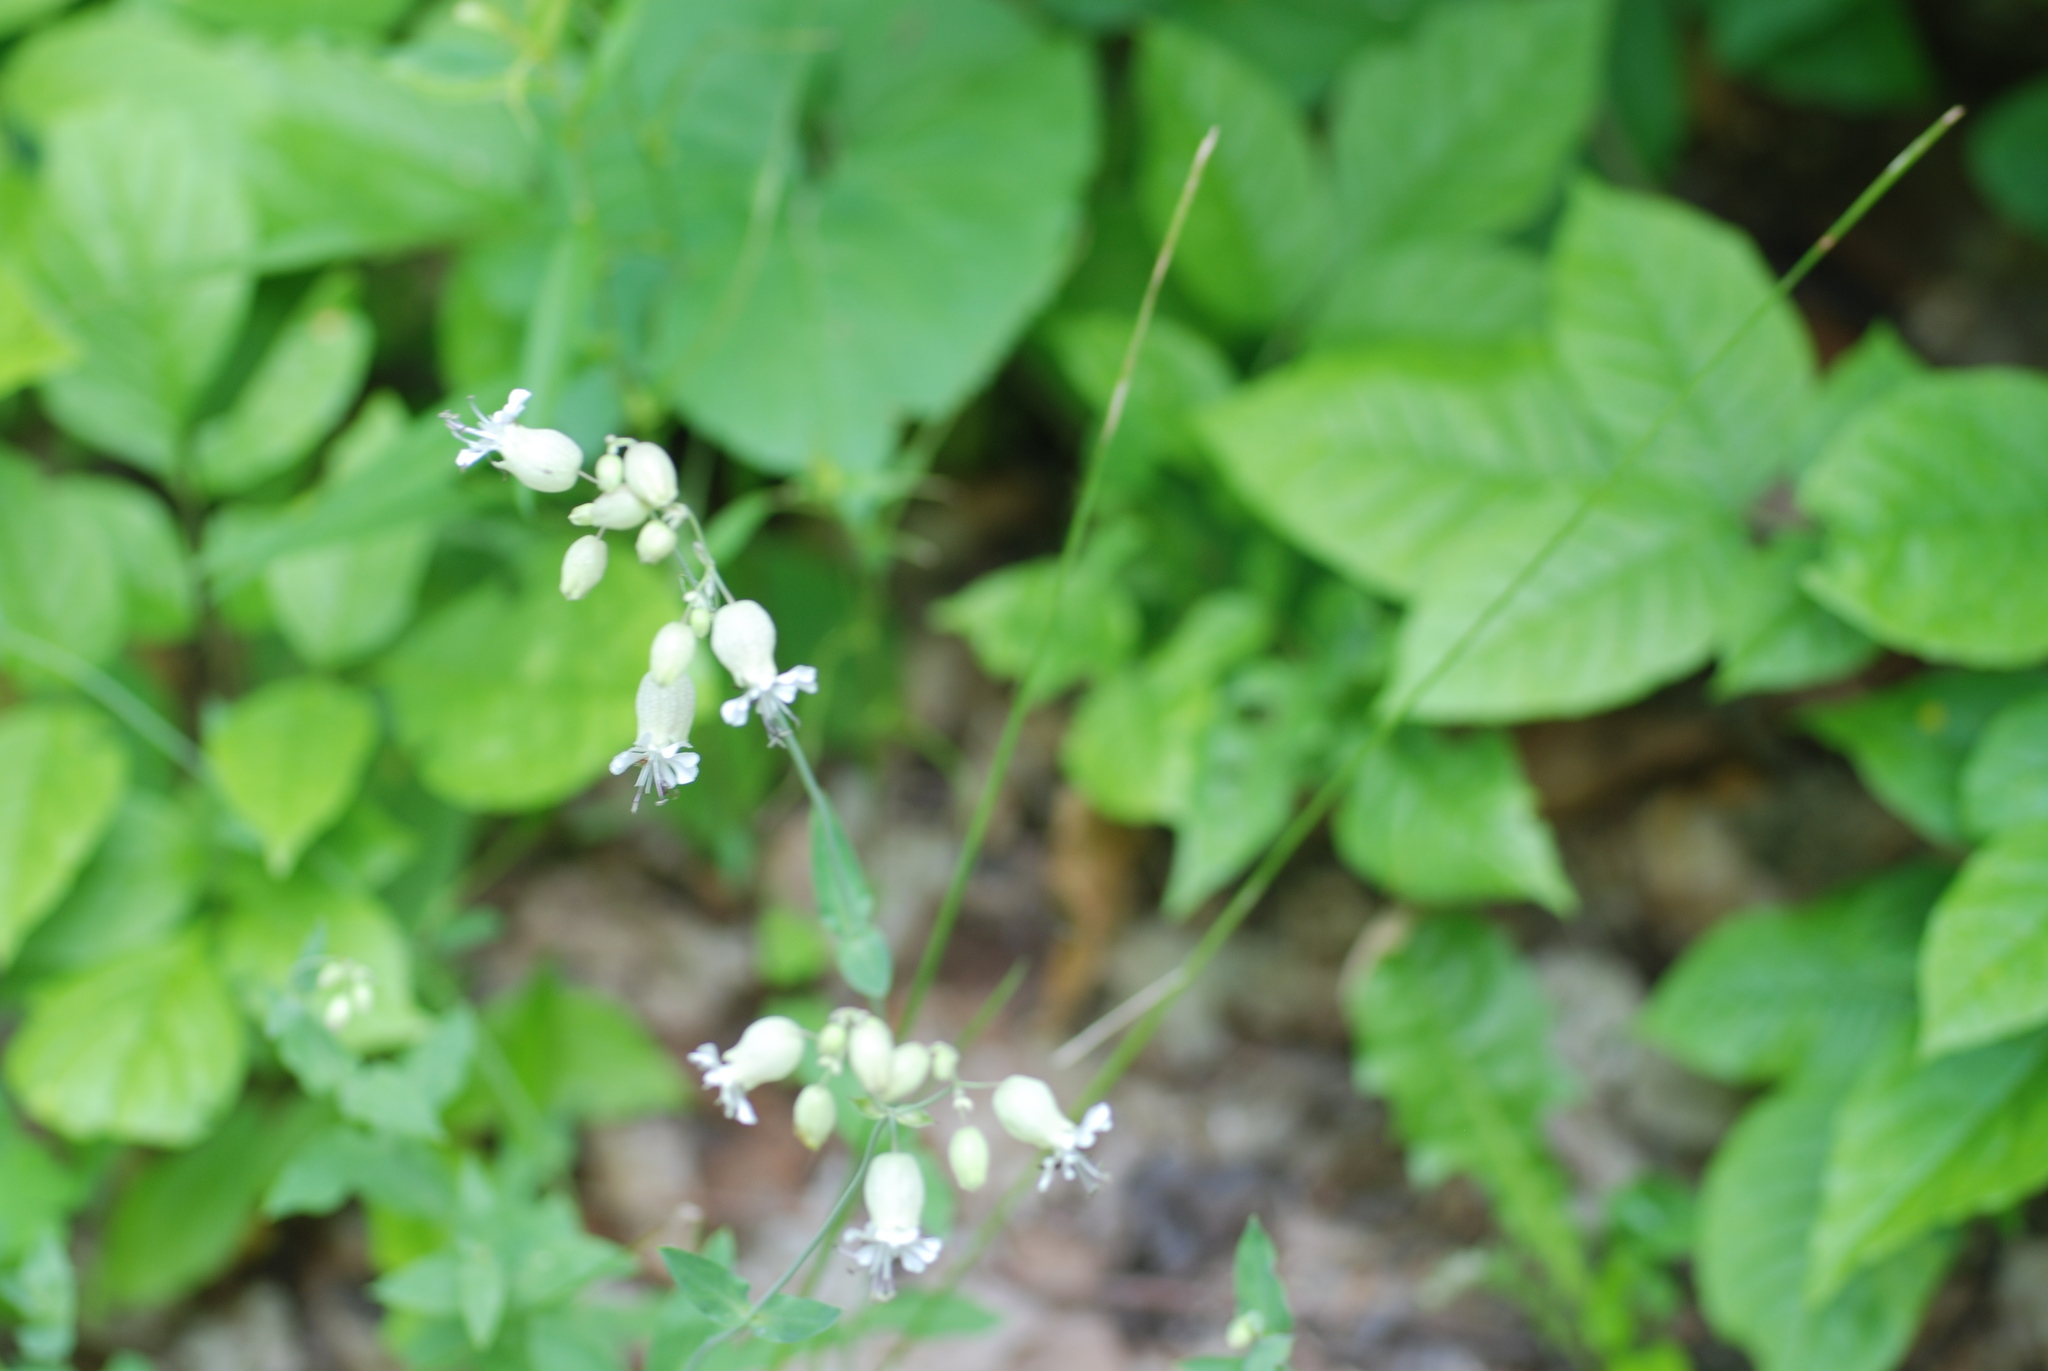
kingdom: Plantae
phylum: Tracheophyta
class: Magnoliopsida
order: Caryophyllales
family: Caryophyllaceae
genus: Silene
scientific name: Silene vulgaris
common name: Bladder campion
